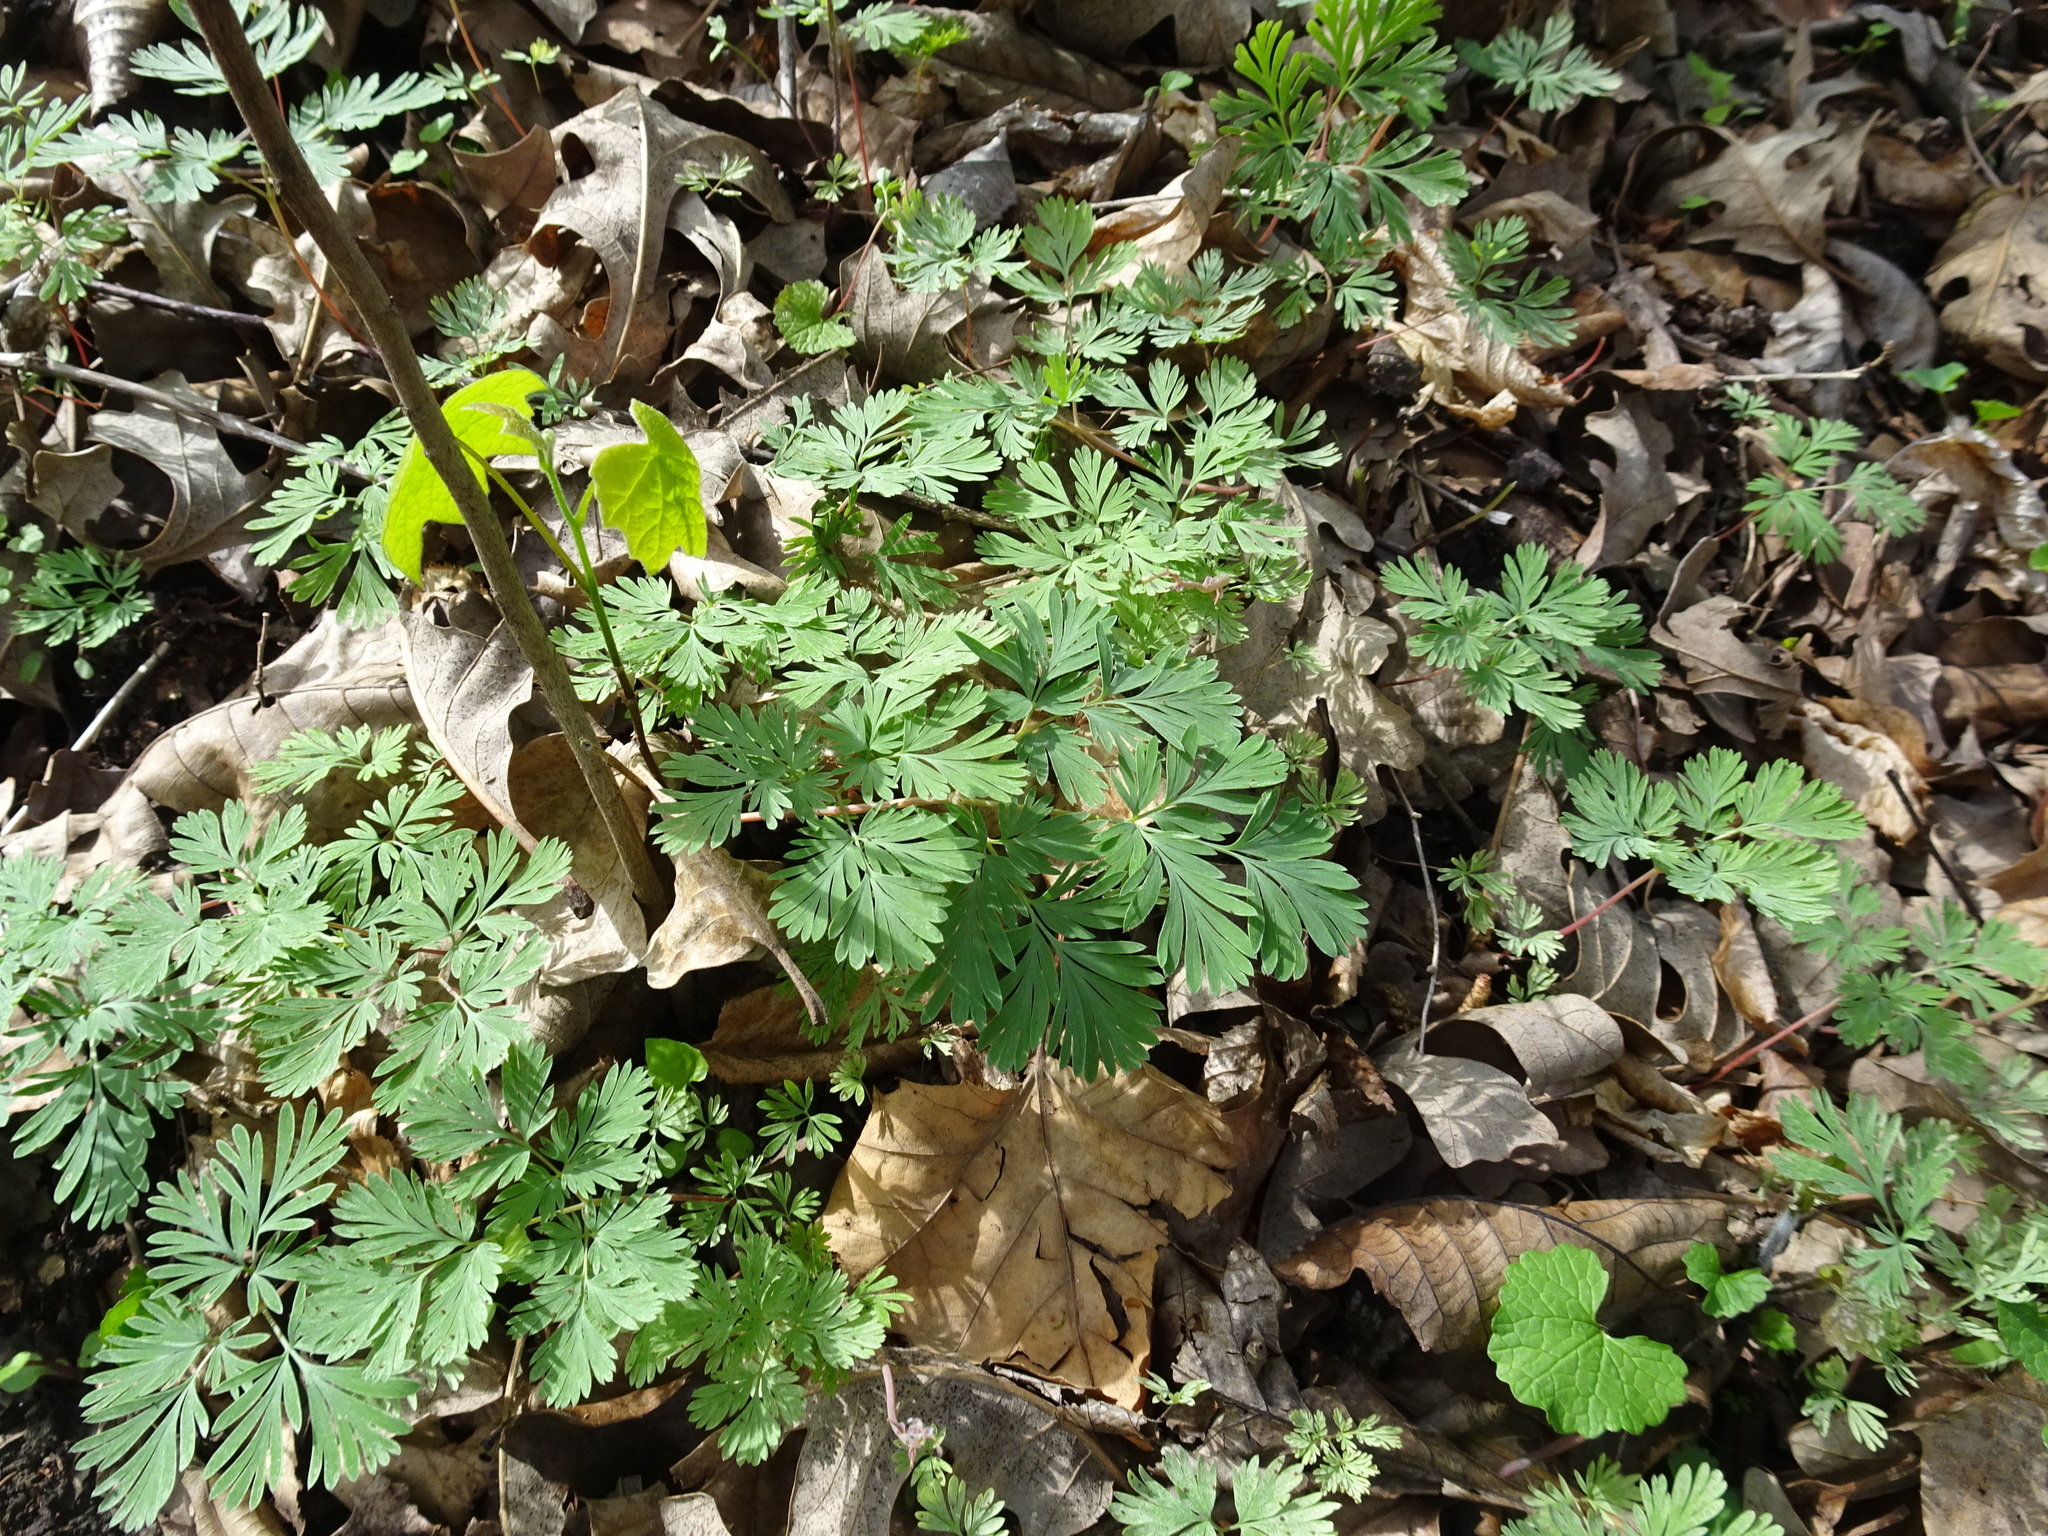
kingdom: Plantae
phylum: Tracheophyta
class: Magnoliopsida
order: Ranunculales
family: Papaveraceae
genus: Dicentra
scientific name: Dicentra cucullaria
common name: Dutchman's breeches
